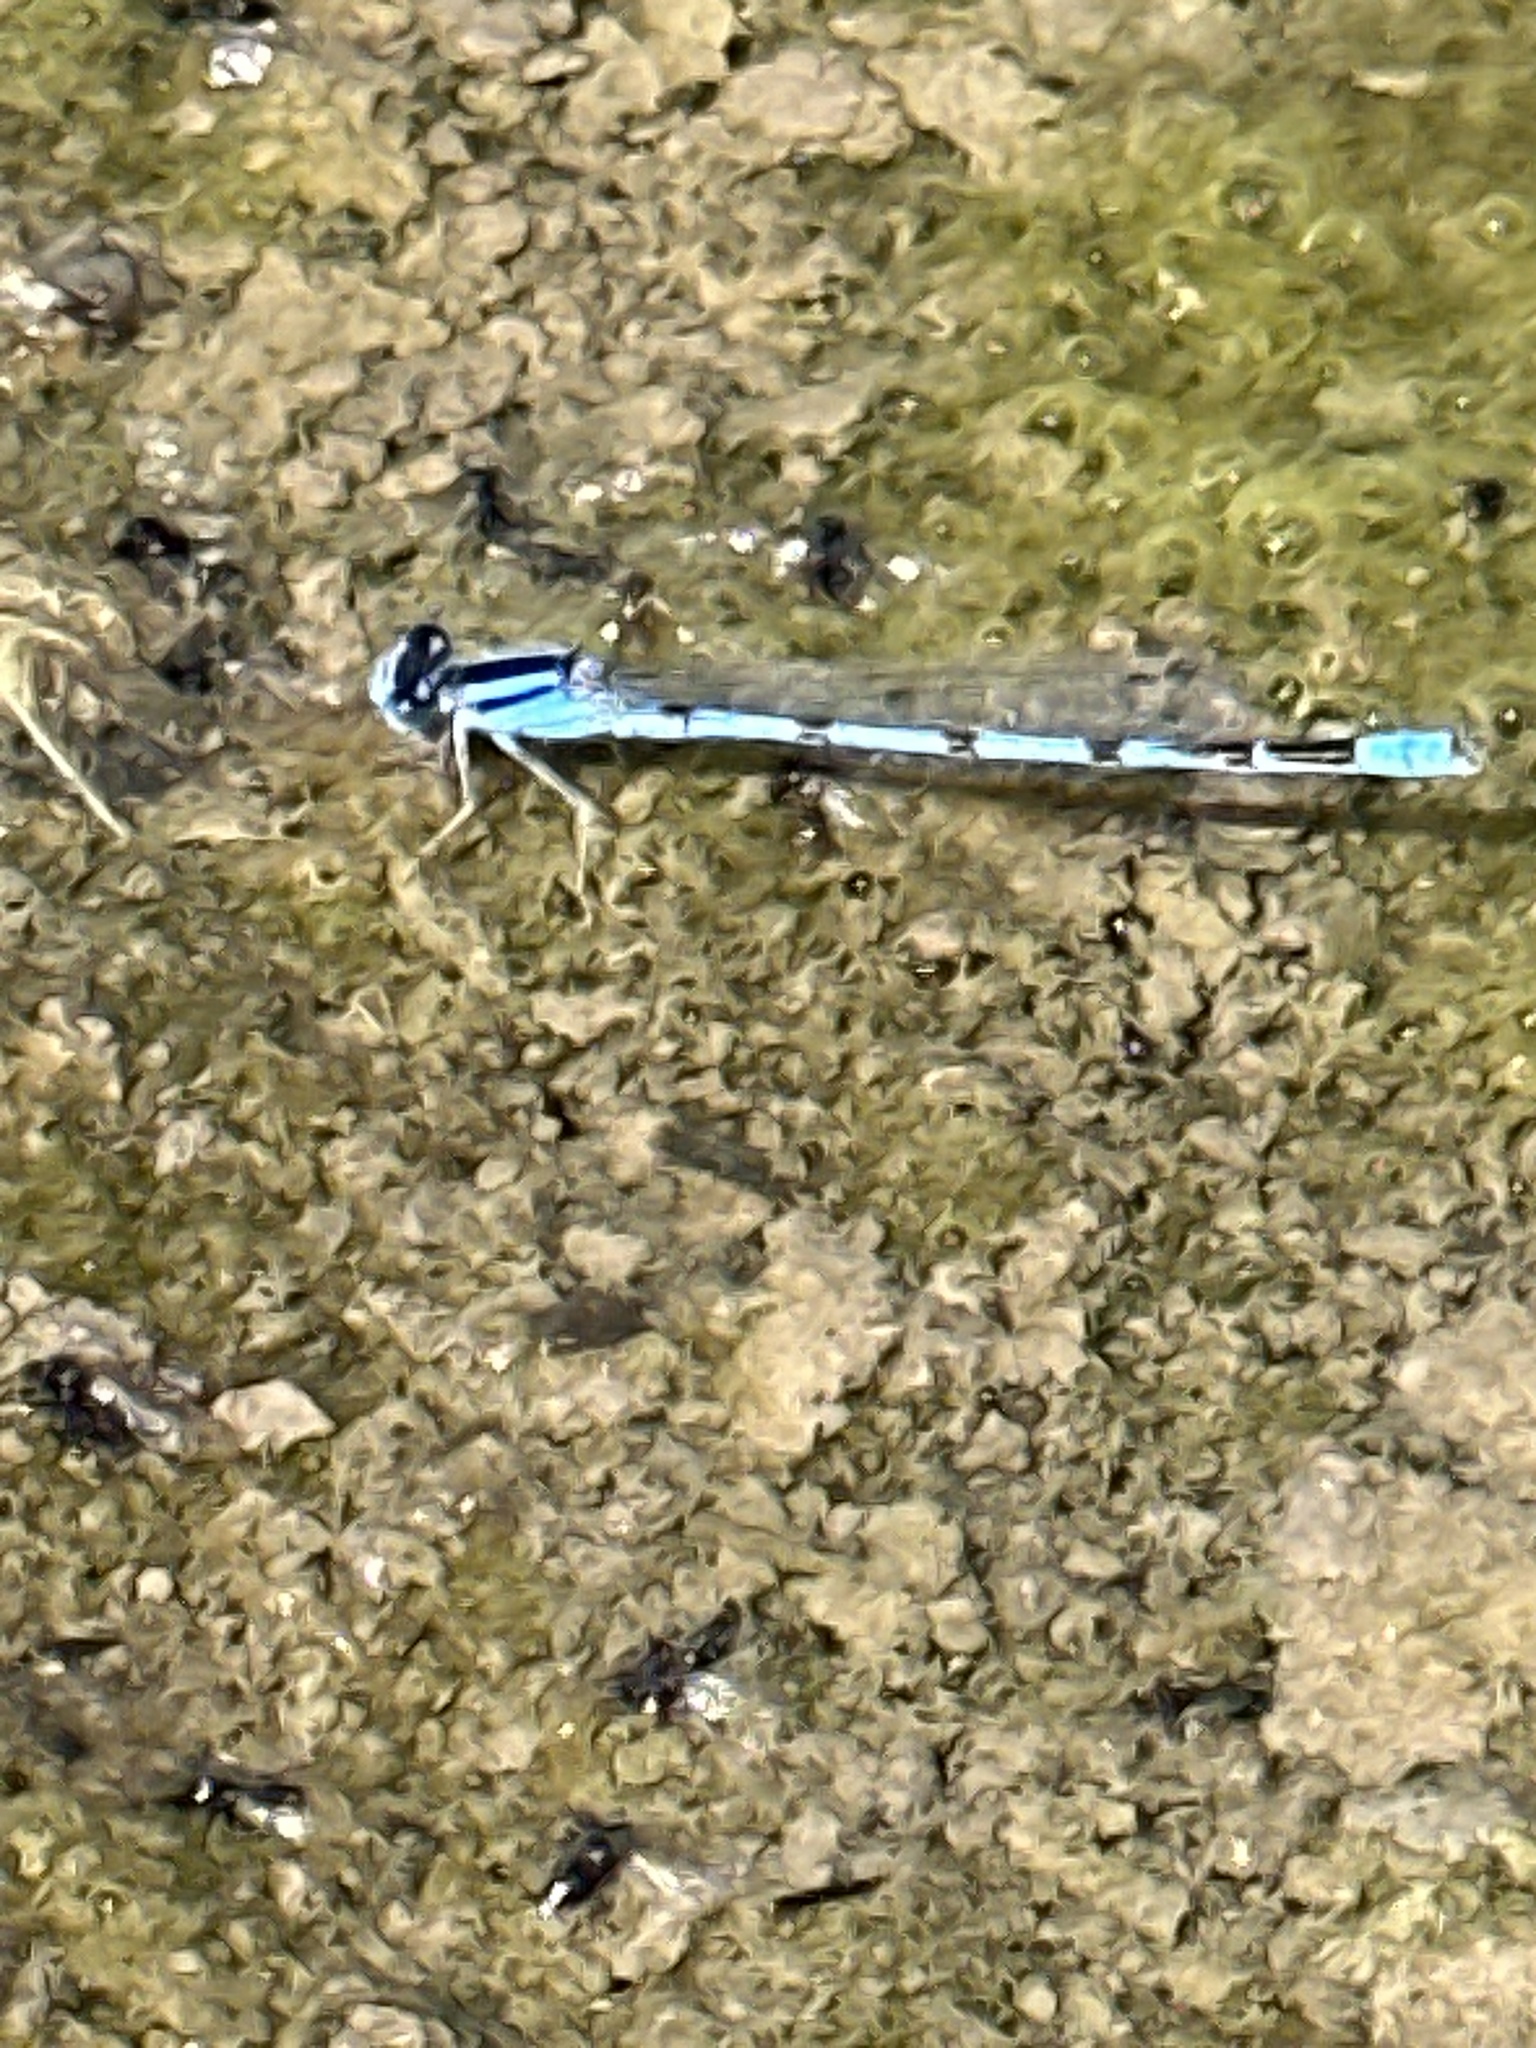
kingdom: Animalia
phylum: Arthropoda
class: Insecta
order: Odonata
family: Coenagrionidae
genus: Enallagma
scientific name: Enallagma civile
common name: Damselfly
